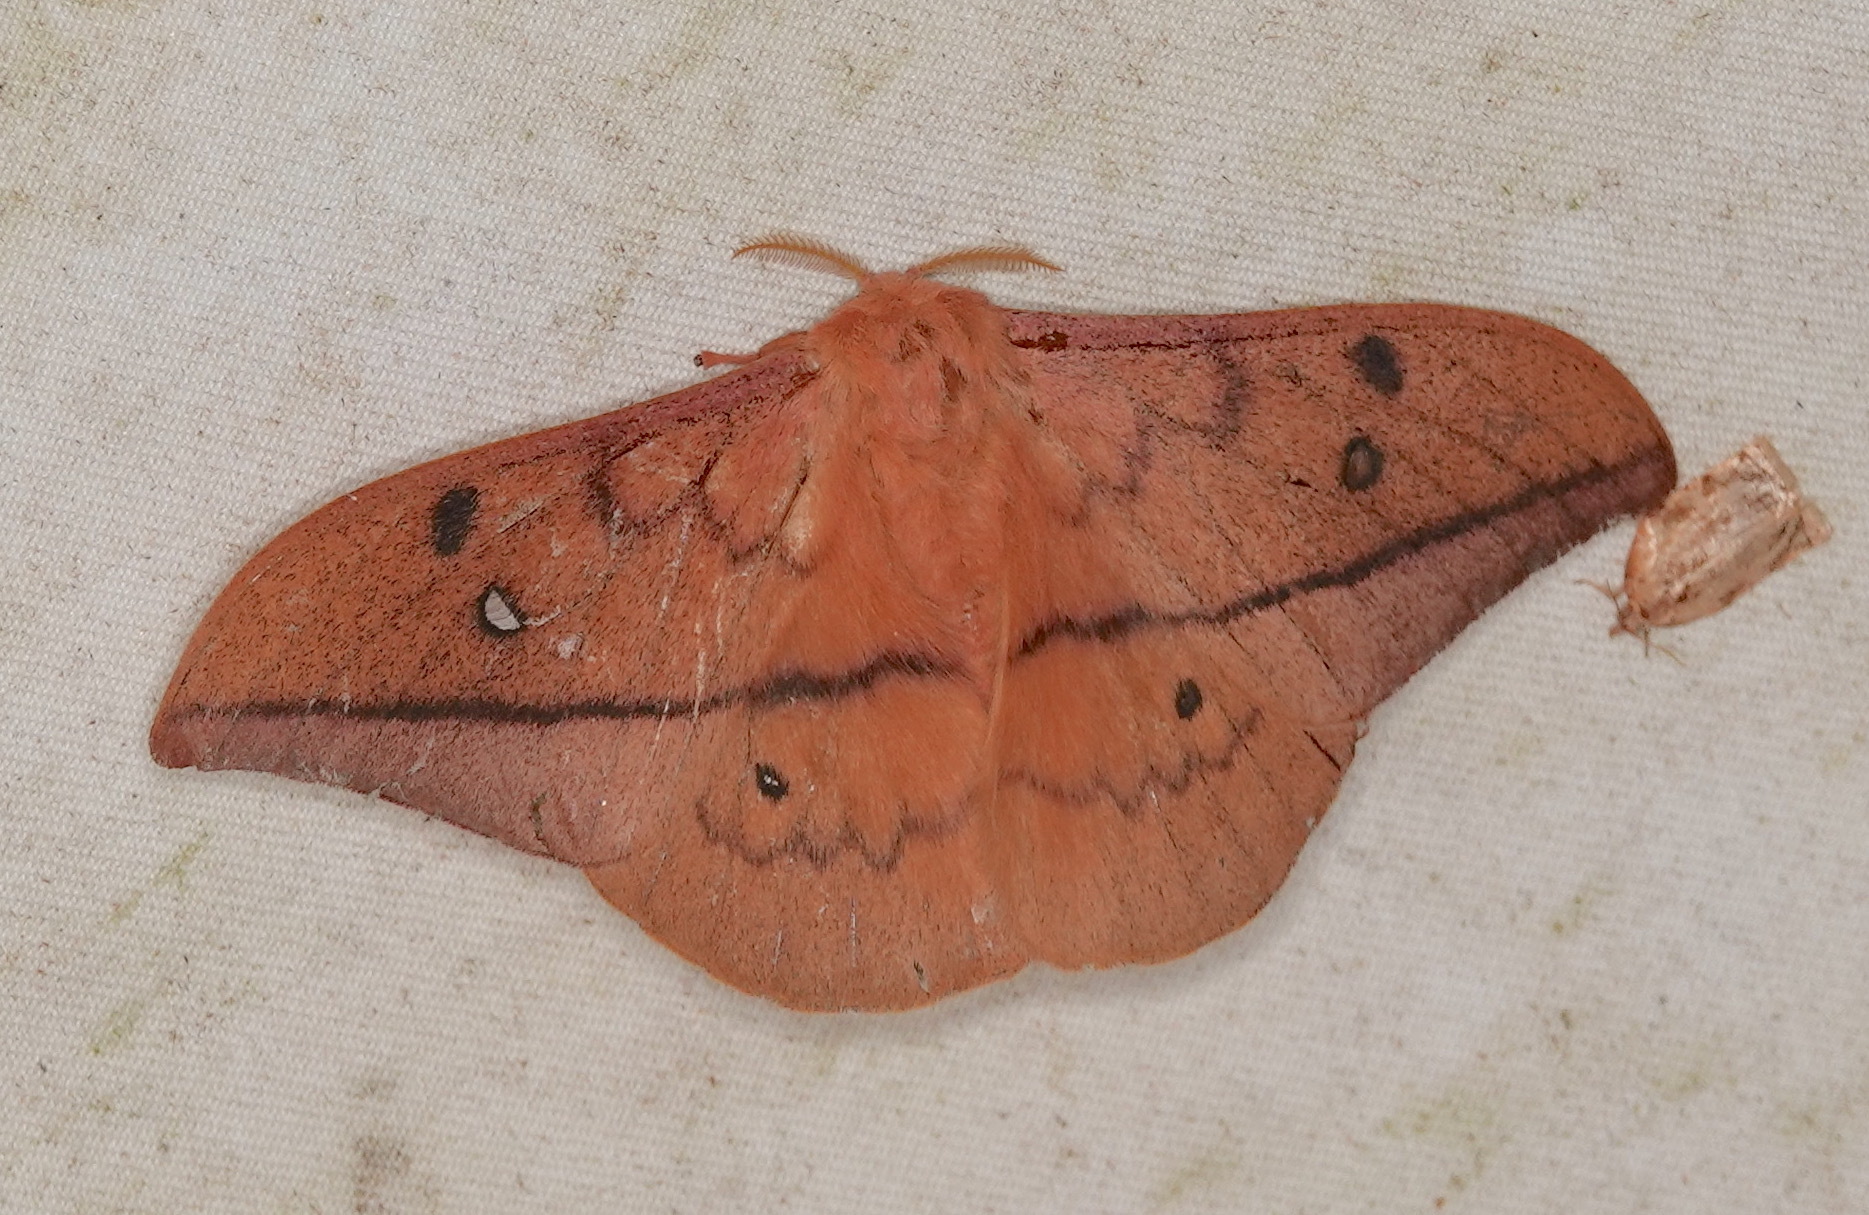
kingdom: Animalia
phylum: Arthropoda
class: Insecta
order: Lepidoptera
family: Saturniidae
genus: Cricula
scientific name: Cricula trifenestrata
